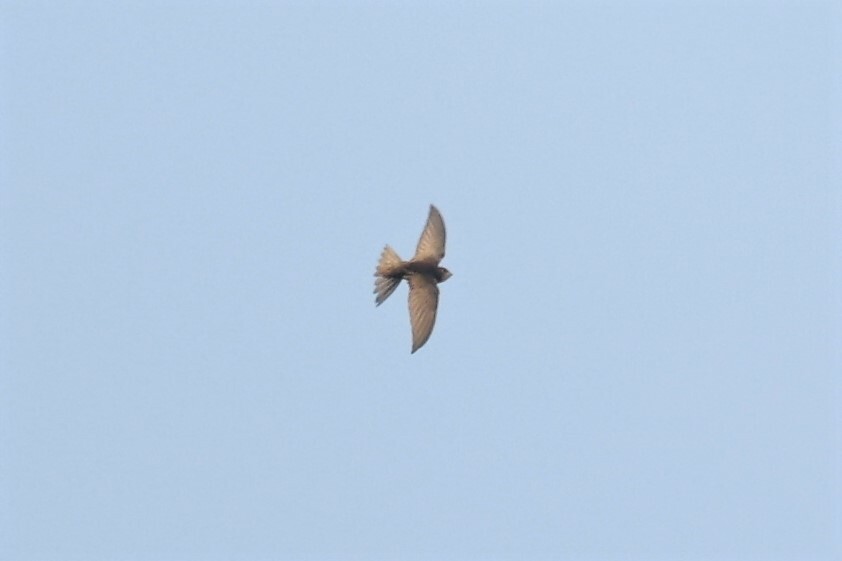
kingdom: Animalia
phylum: Chordata
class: Aves
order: Apodiformes
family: Apodidae
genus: Apus
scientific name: Apus apus
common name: Common swift
